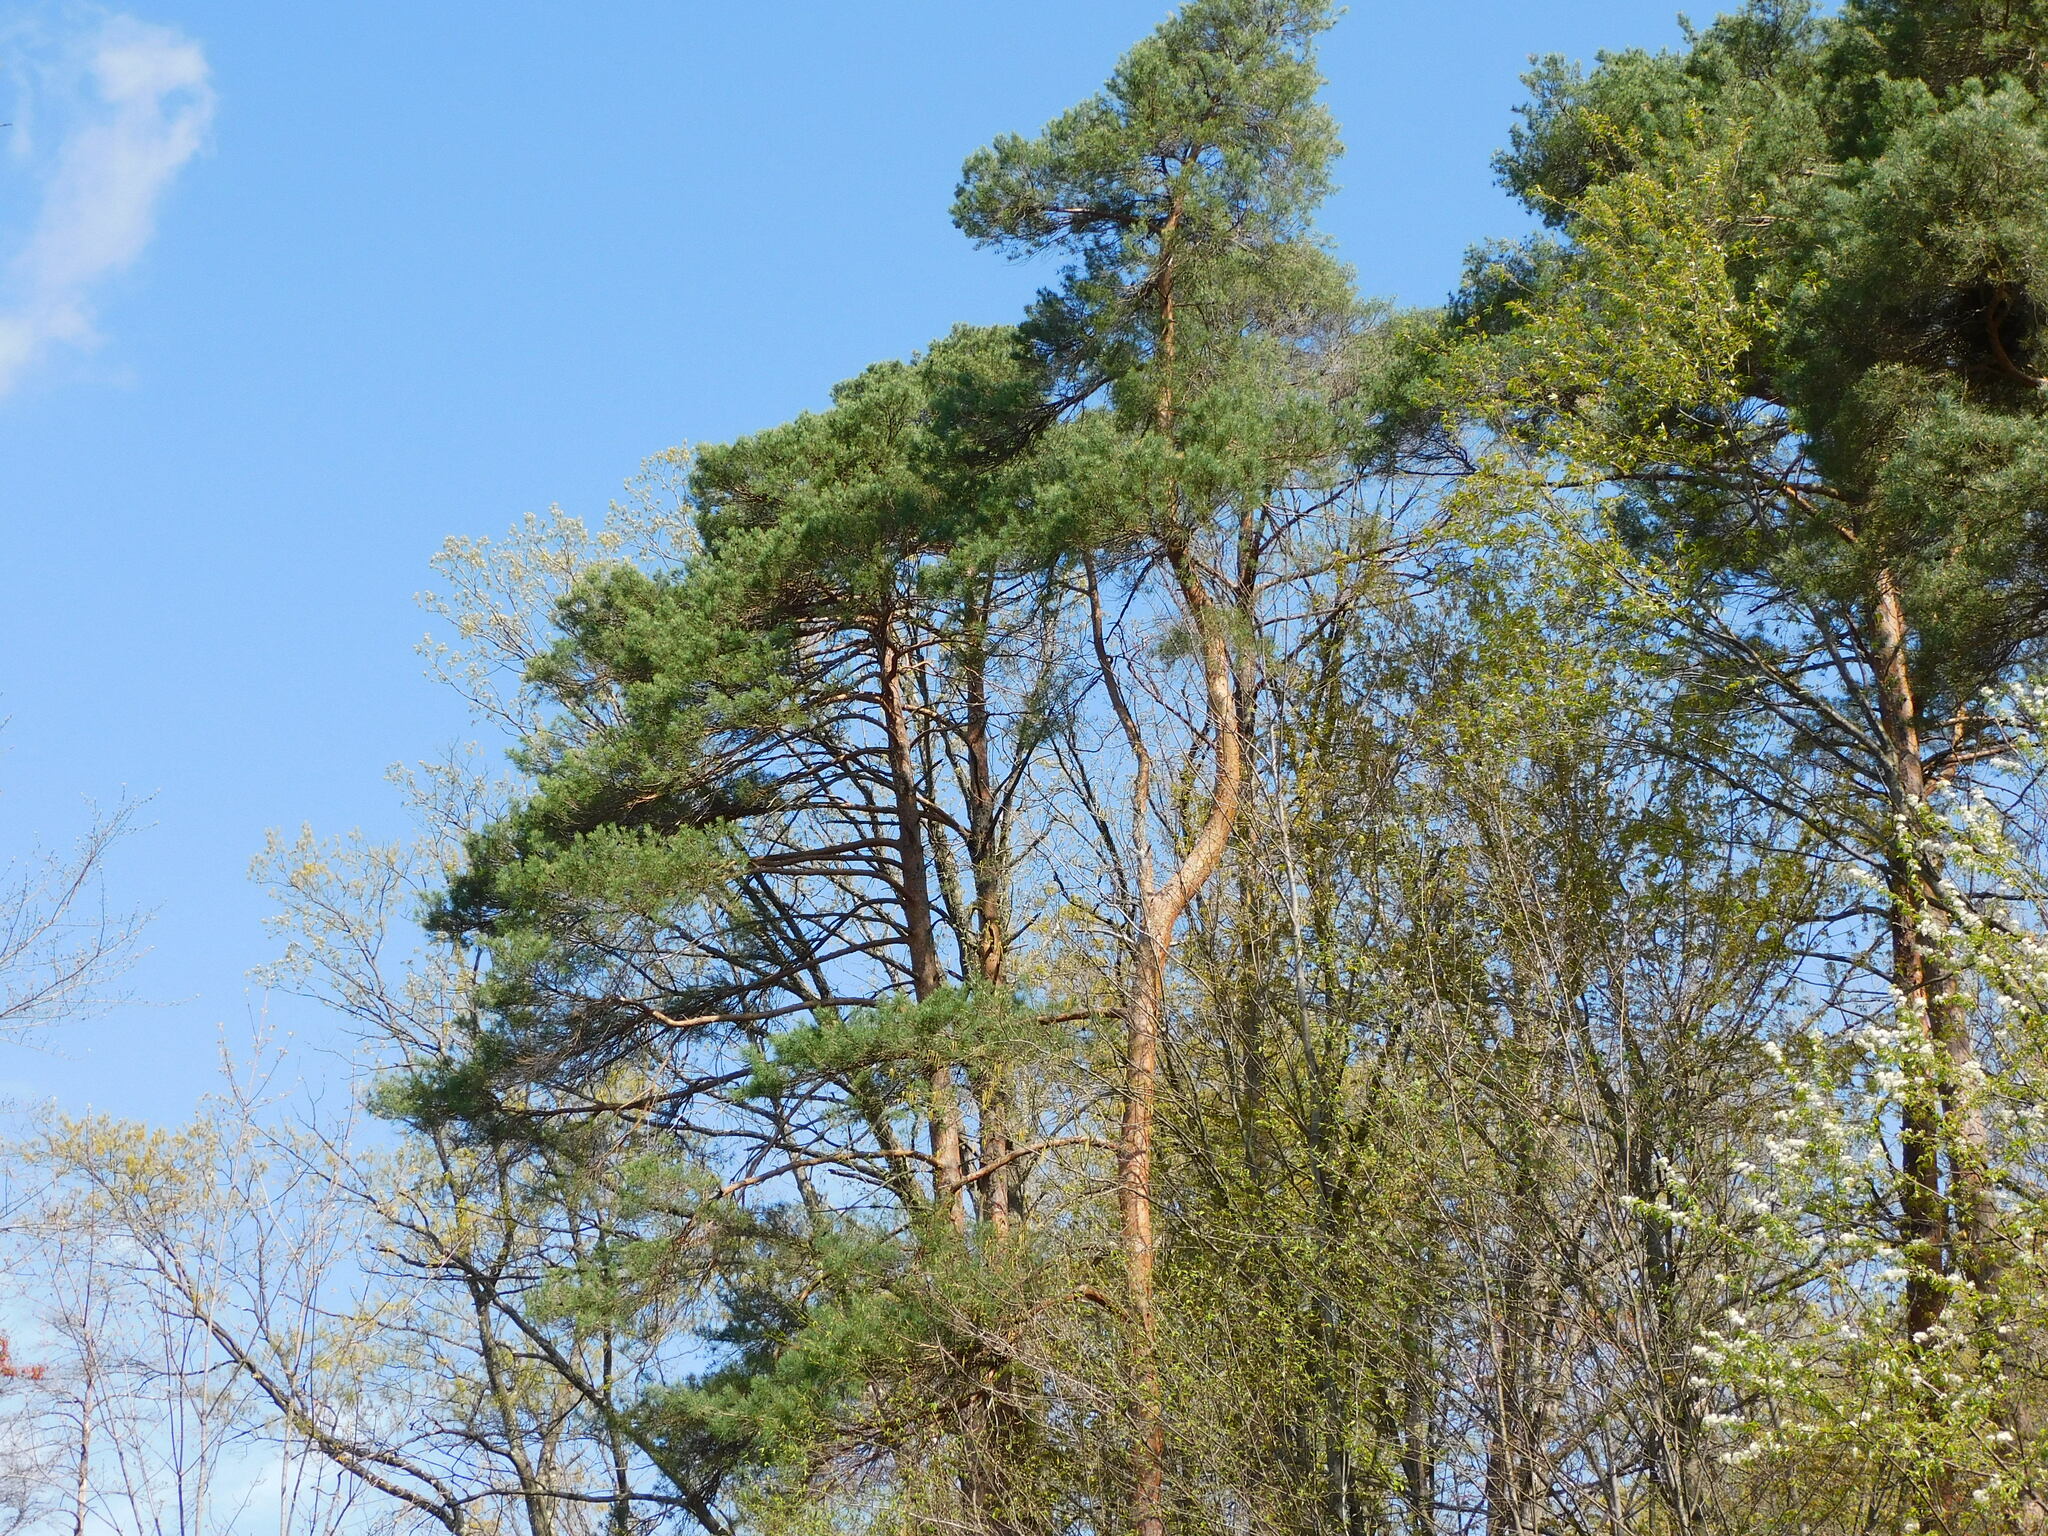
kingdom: Plantae
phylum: Tracheophyta
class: Pinopsida
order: Pinales
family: Pinaceae
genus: Pinus
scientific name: Pinus sylvestris
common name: Scots pine
